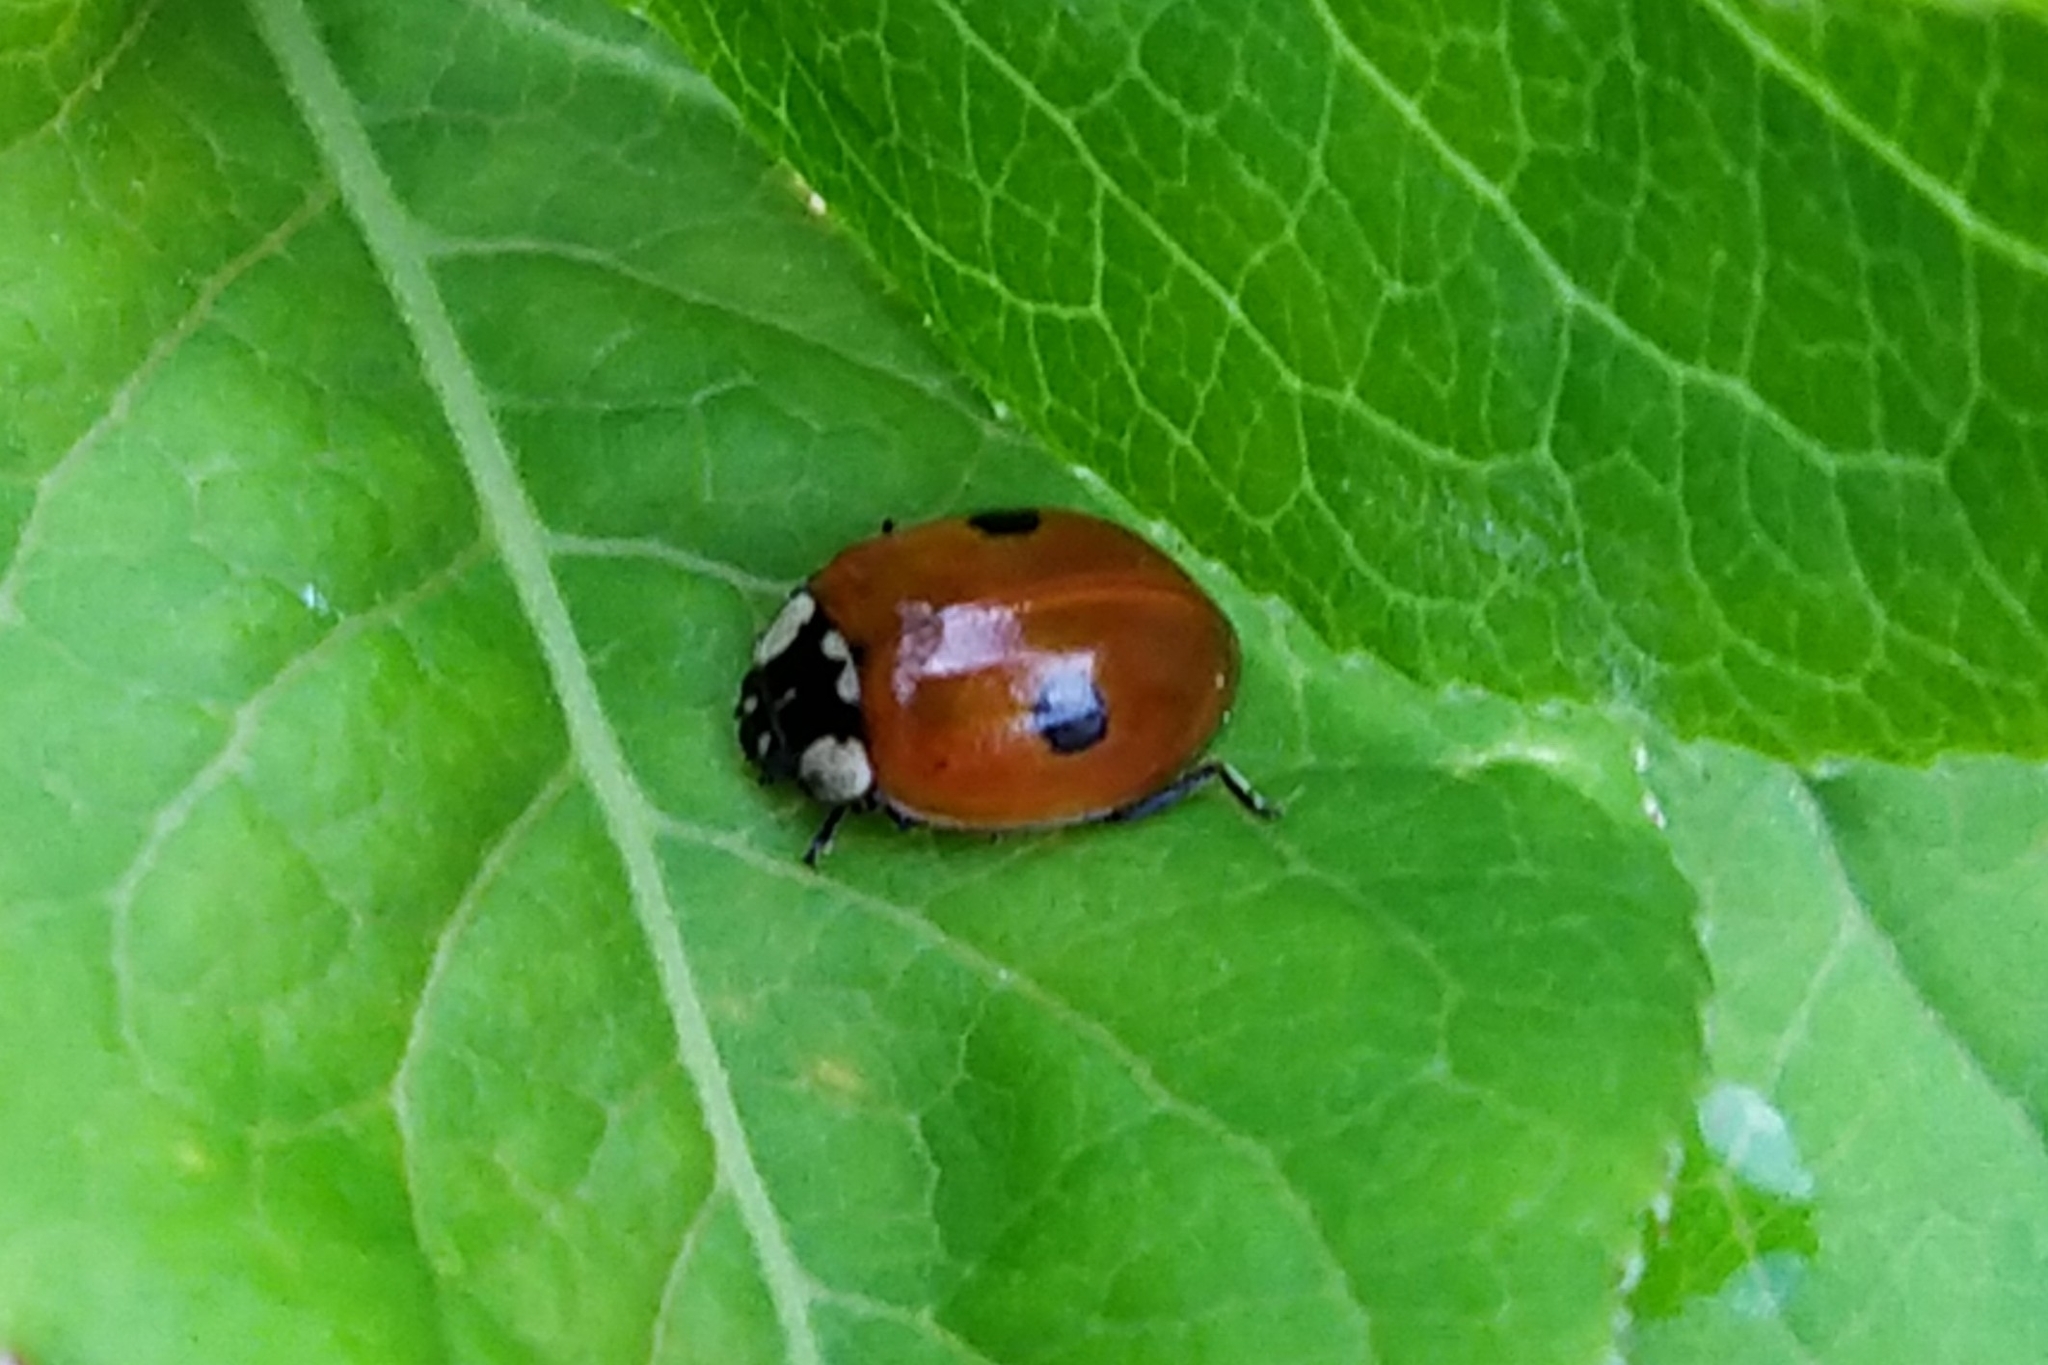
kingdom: Animalia
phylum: Arthropoda
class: Insecta
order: Coleoptera
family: Coccinellidae
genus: Adalia
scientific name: Adalia bipunctata
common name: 2-spot ladybird
